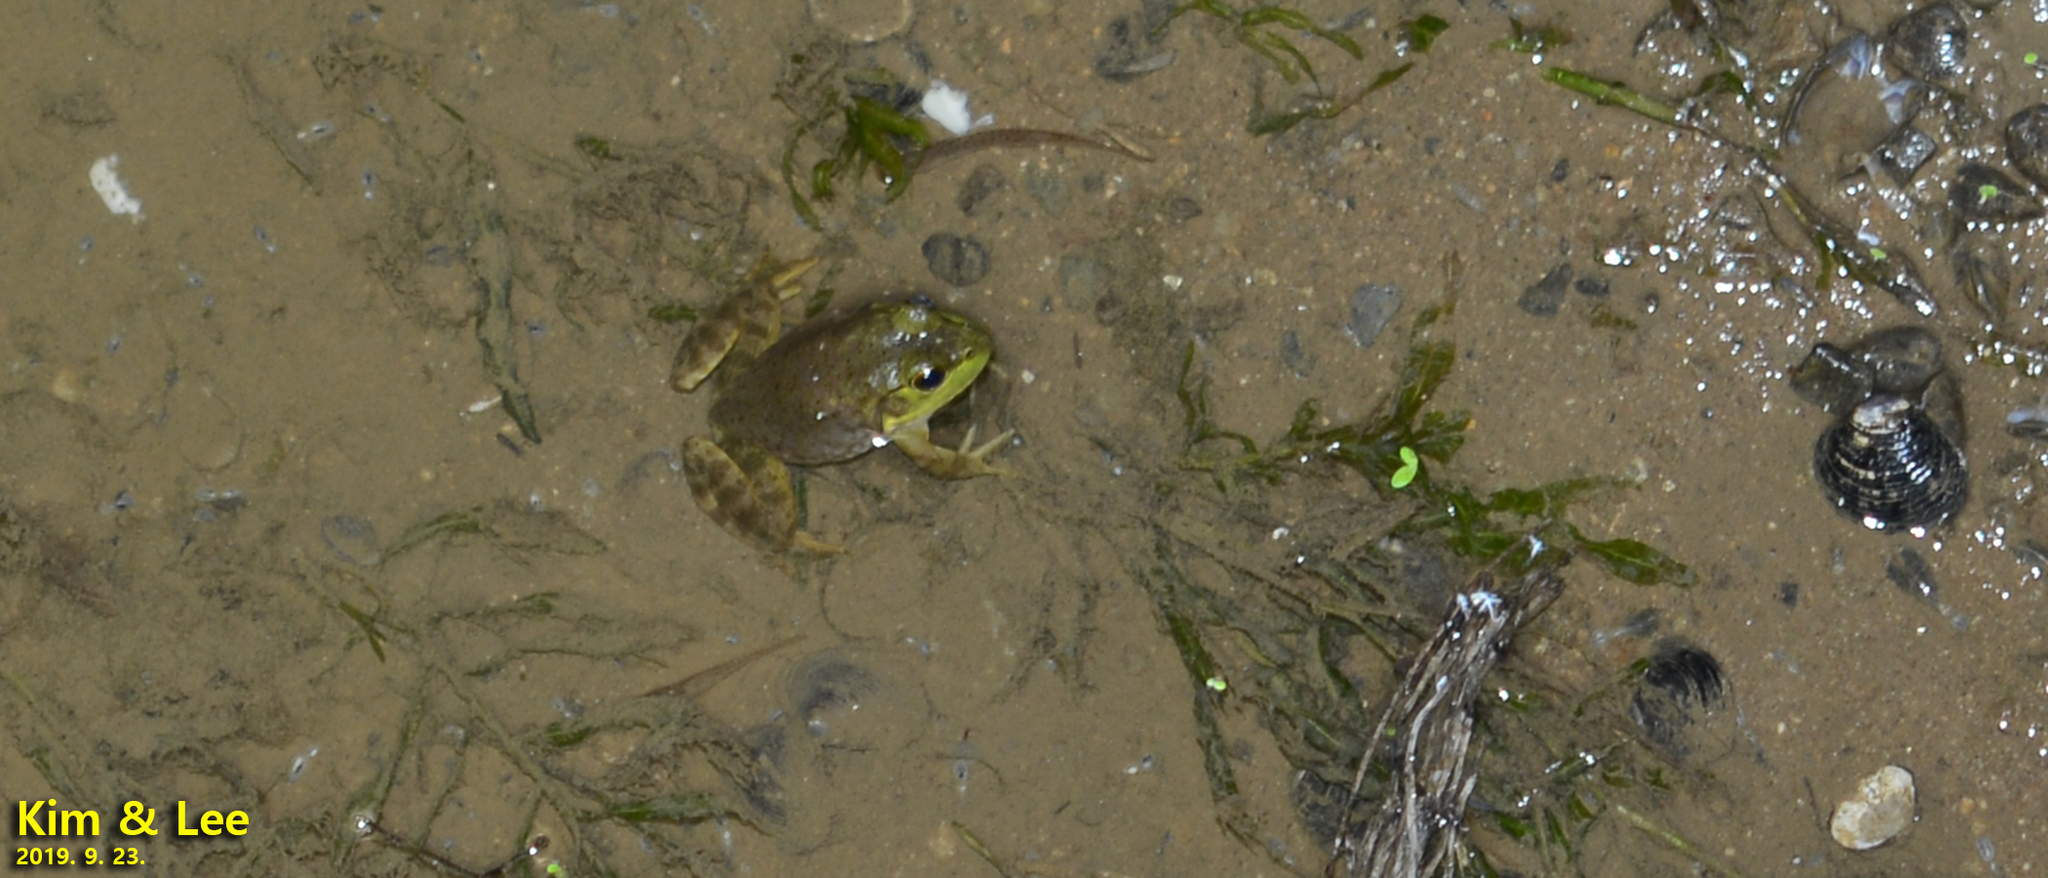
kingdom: Animalia
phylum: Chordata
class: Amphibia
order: Anura
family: Ranidae
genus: Lithobates
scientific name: Lithobates catesbeianus
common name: American bullfrog
